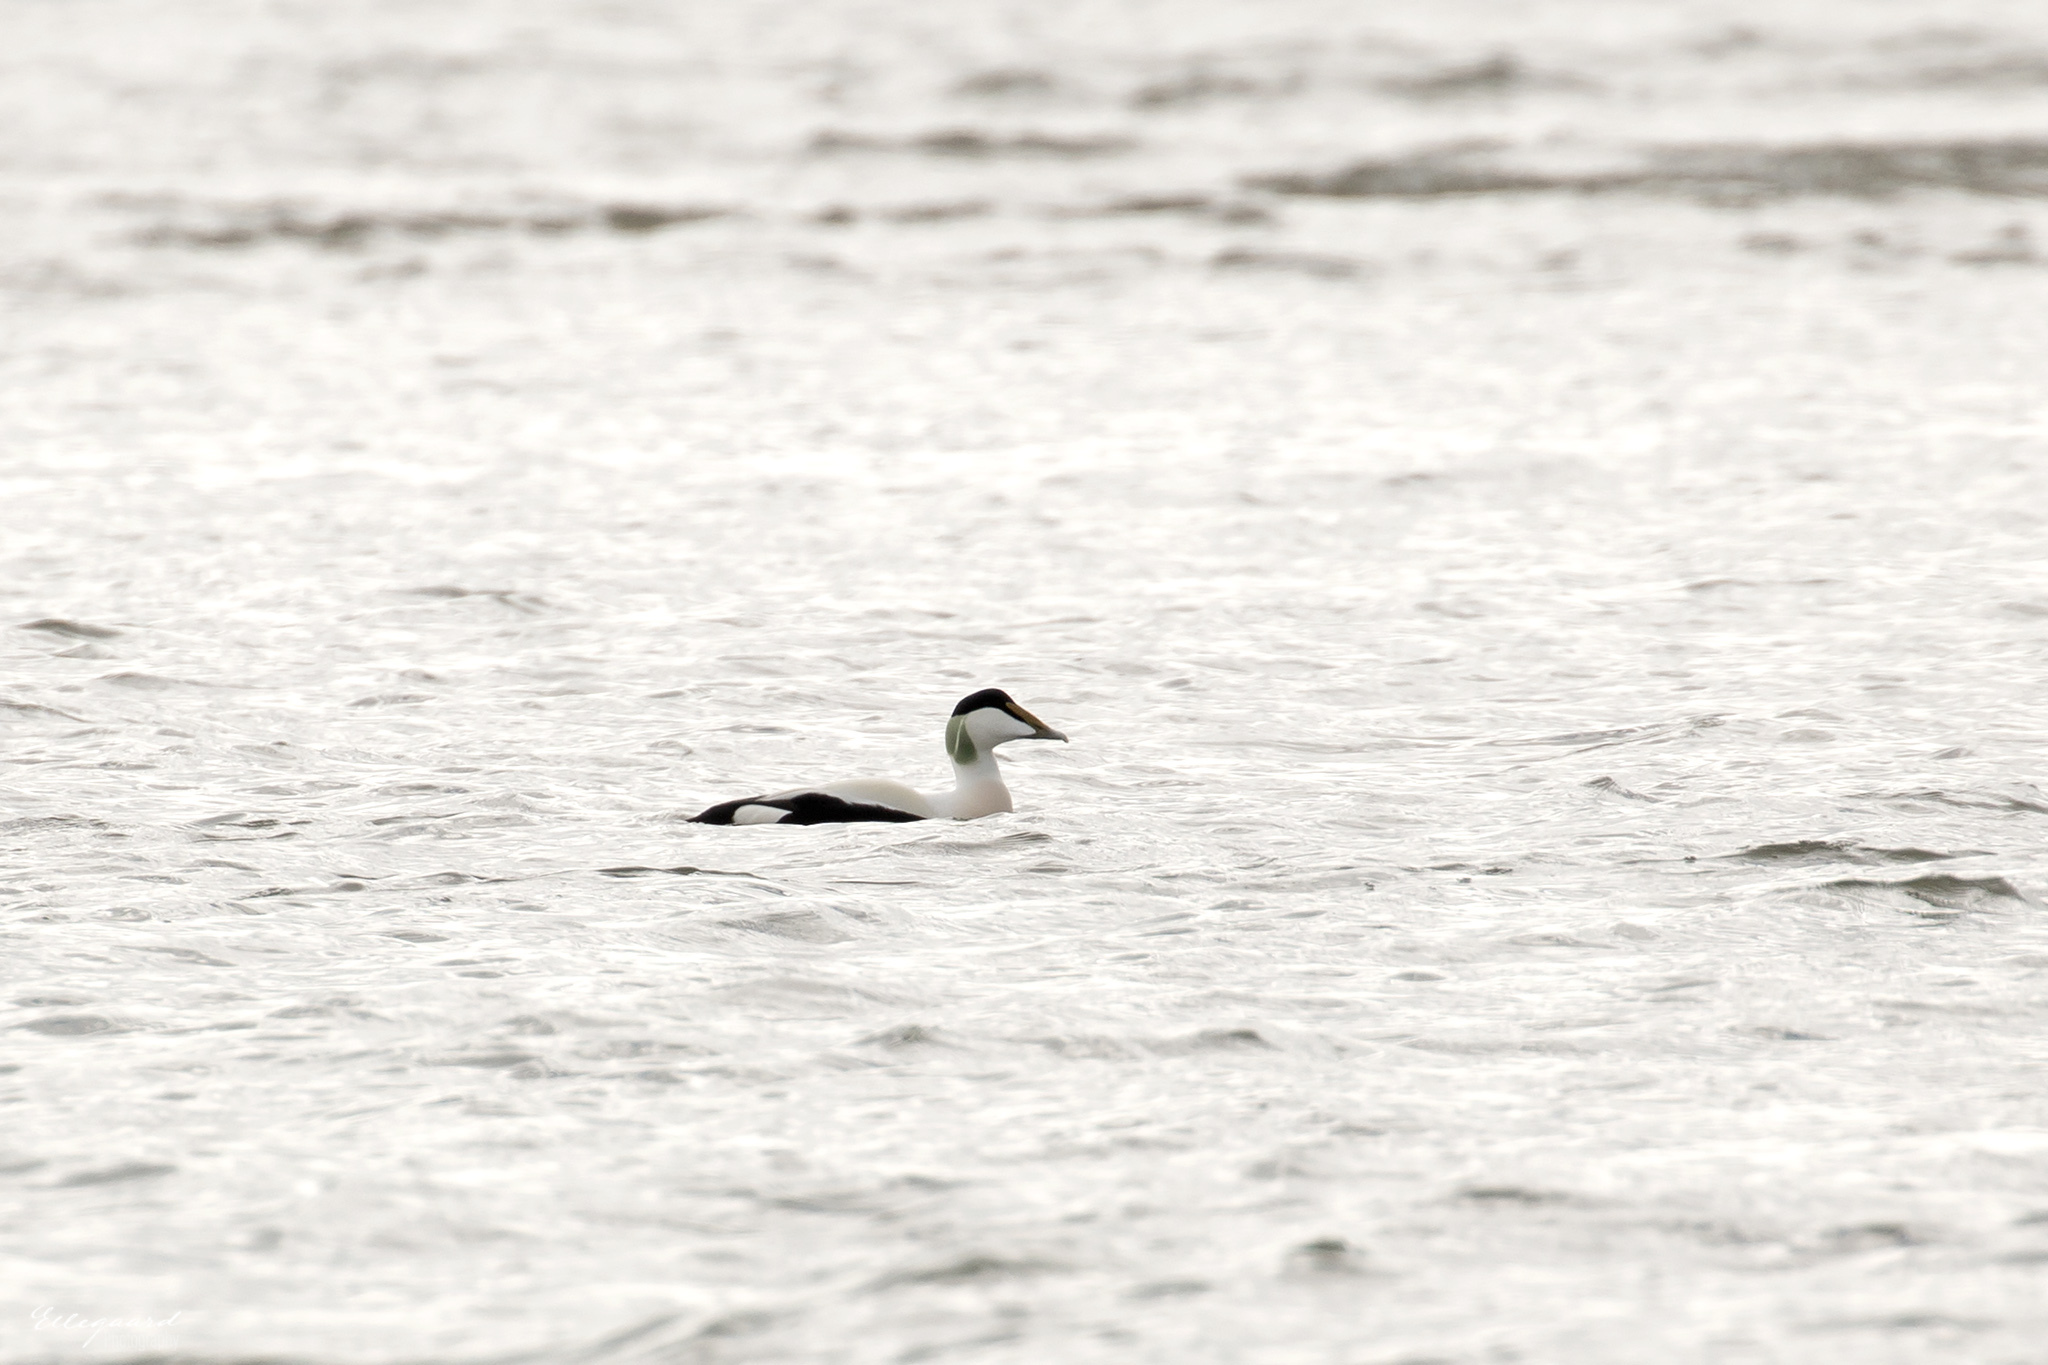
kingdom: Animalia
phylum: Chordata
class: Aves
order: Anseriformes
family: Anatidae
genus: Somateria
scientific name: Somateria mollissima
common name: Common eider
